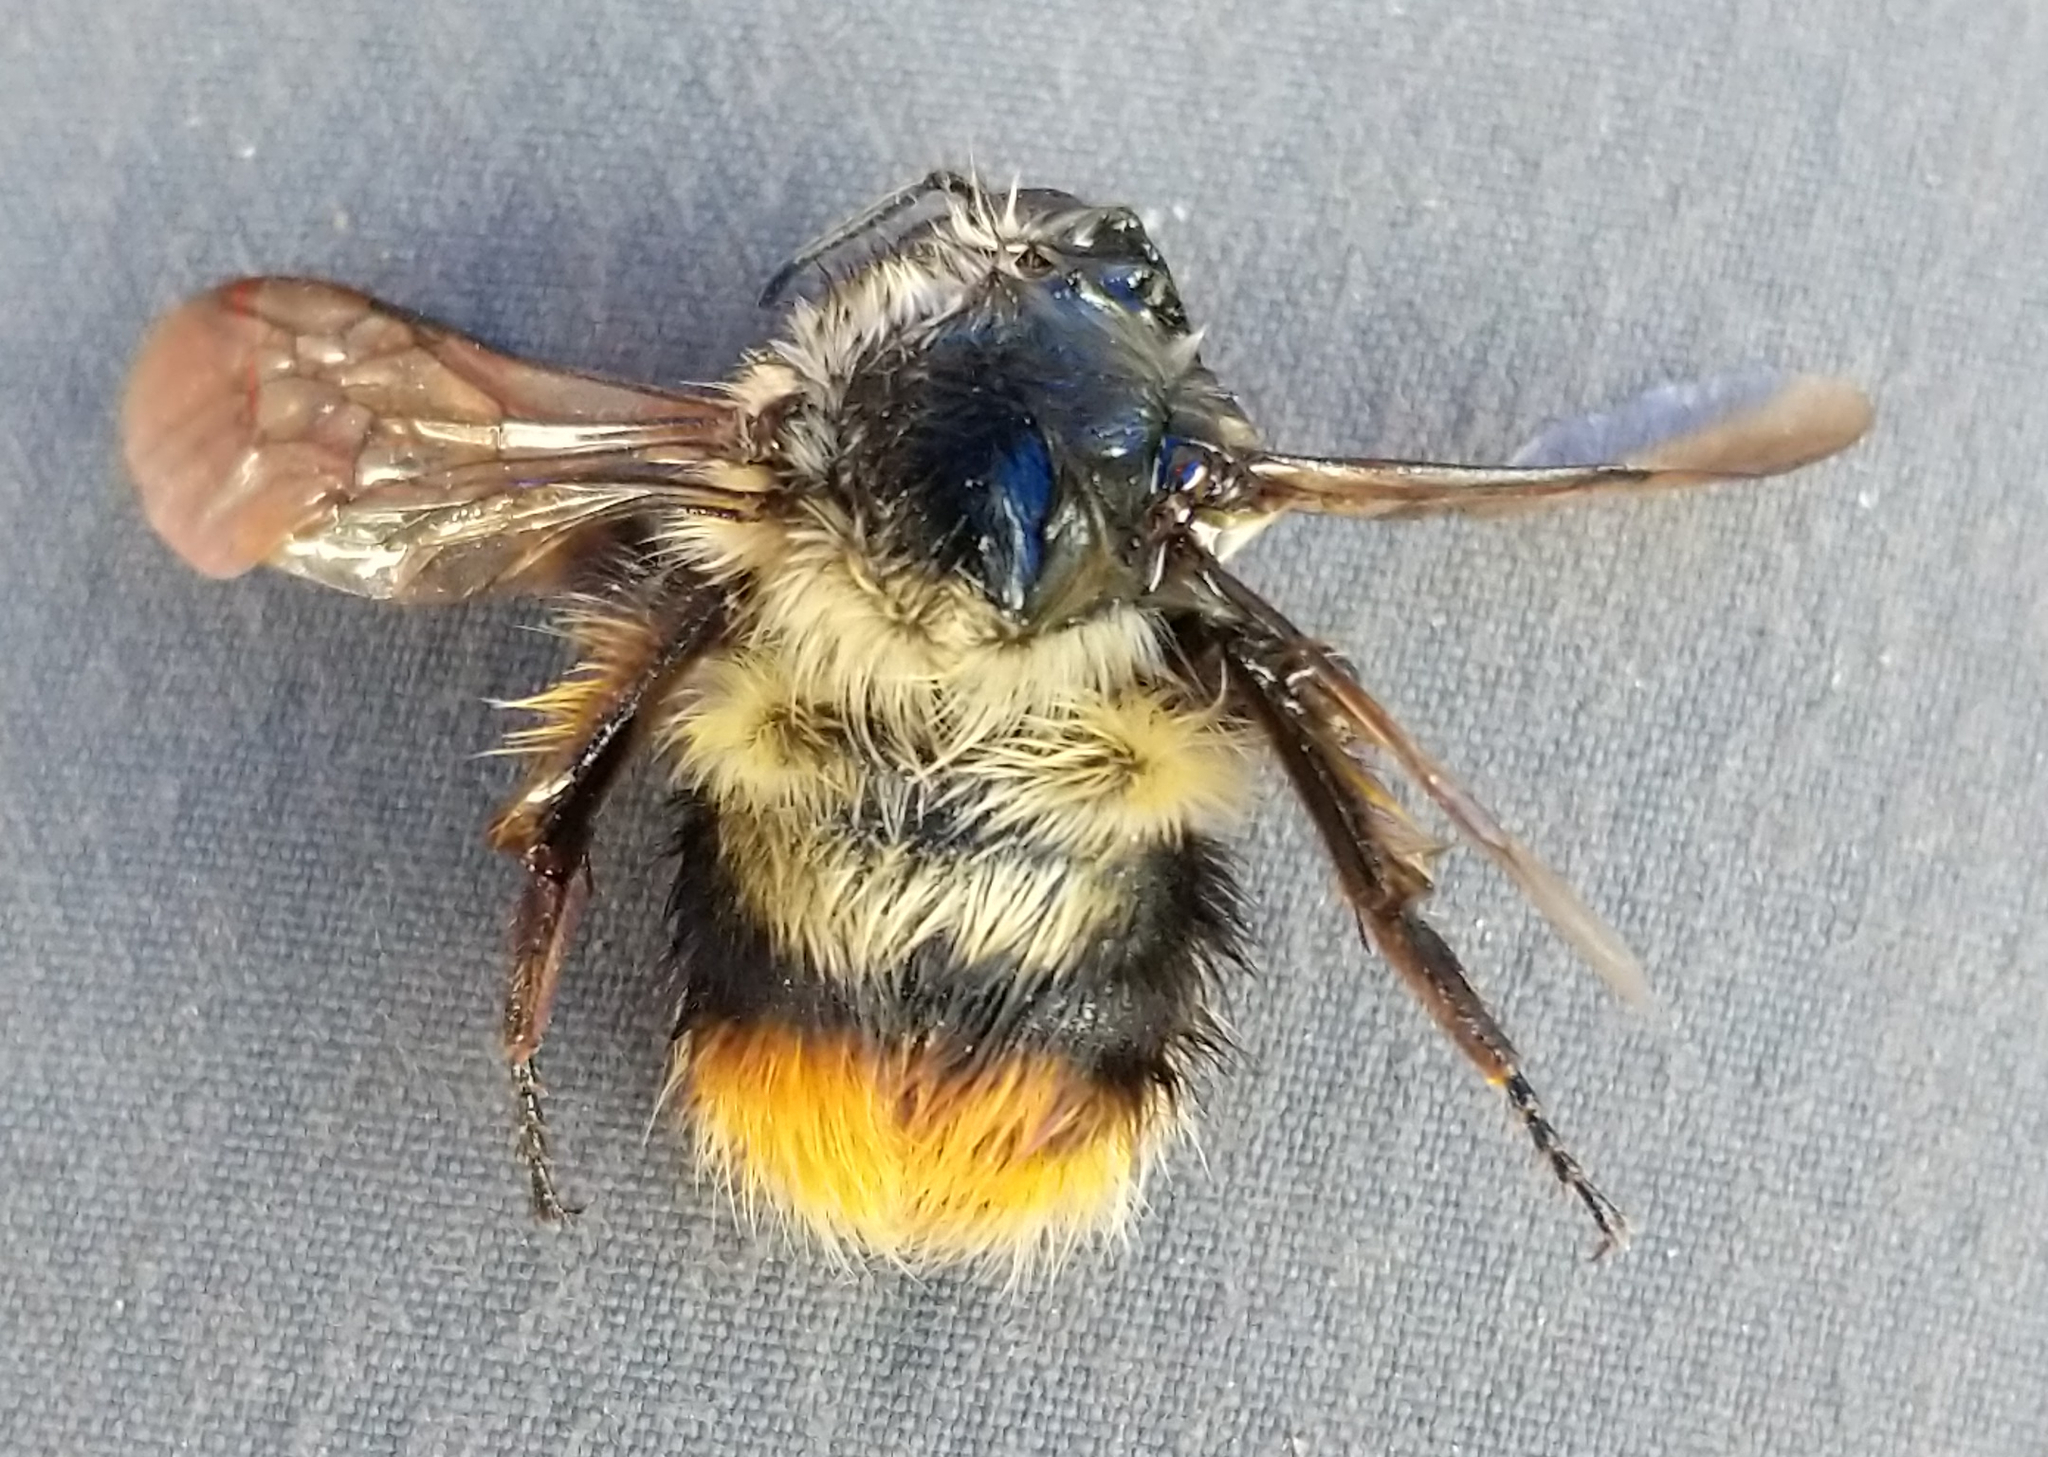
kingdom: Animalia
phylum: Arthropoda
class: Insecta
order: Hymenoptera
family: Apidae
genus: Bombus
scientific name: Bombus mixtus
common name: Fuzzy-horned bumble bee
